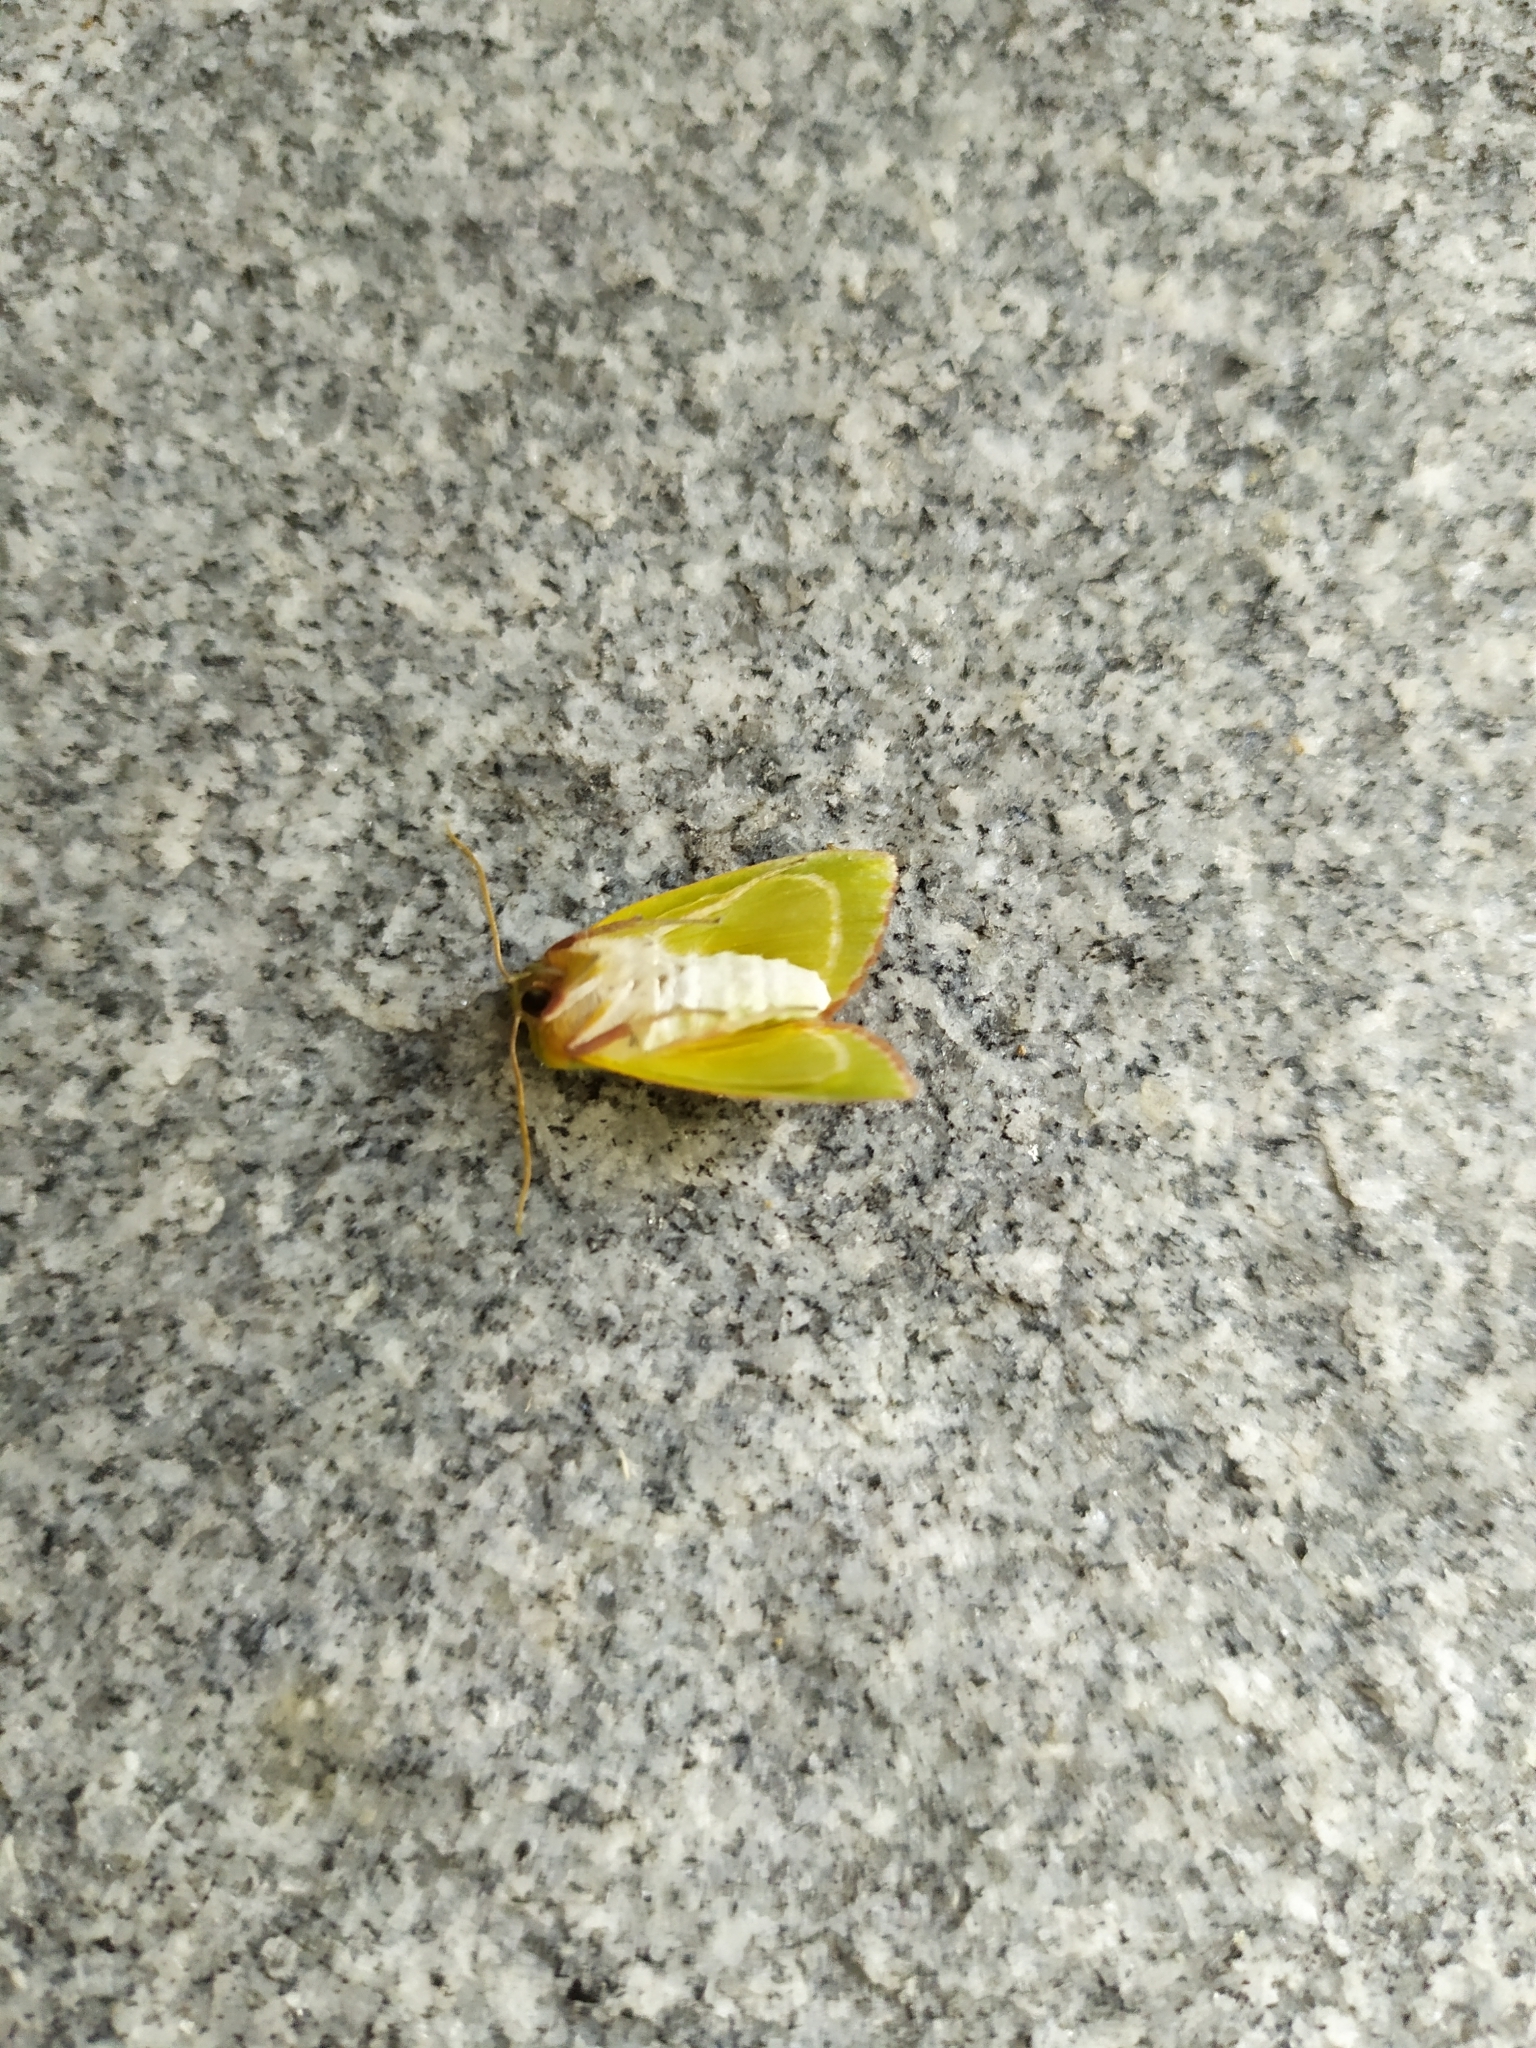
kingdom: Animalia
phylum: Arthropoda
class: Insecta
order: Lepidoptera
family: Nolidae
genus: Pseudoips
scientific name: Pseudoips prasinana
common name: Green silver-lines
